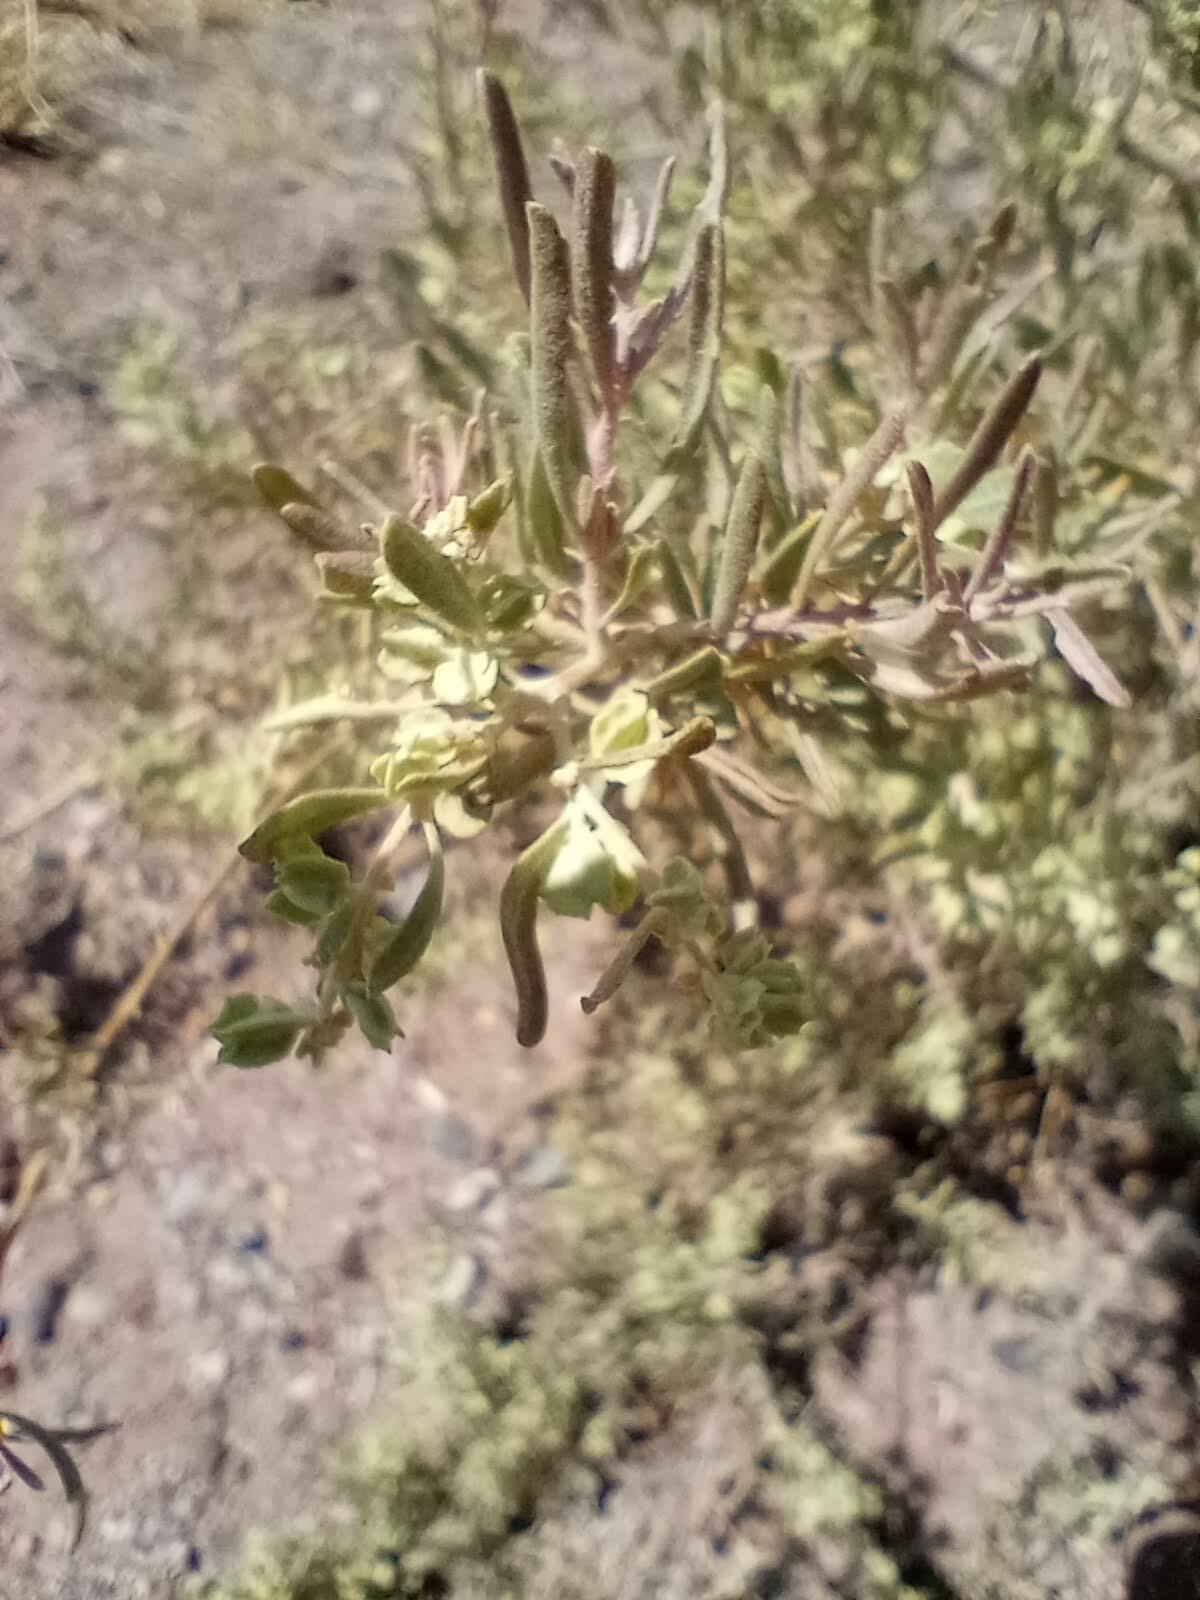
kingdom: Plantae
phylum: Tracheophyta
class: Magnoliopsida
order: Caryophyllales
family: Amaranthaceae
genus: Atriplex
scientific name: Atriplex canescens
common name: Four-wing saltbush
